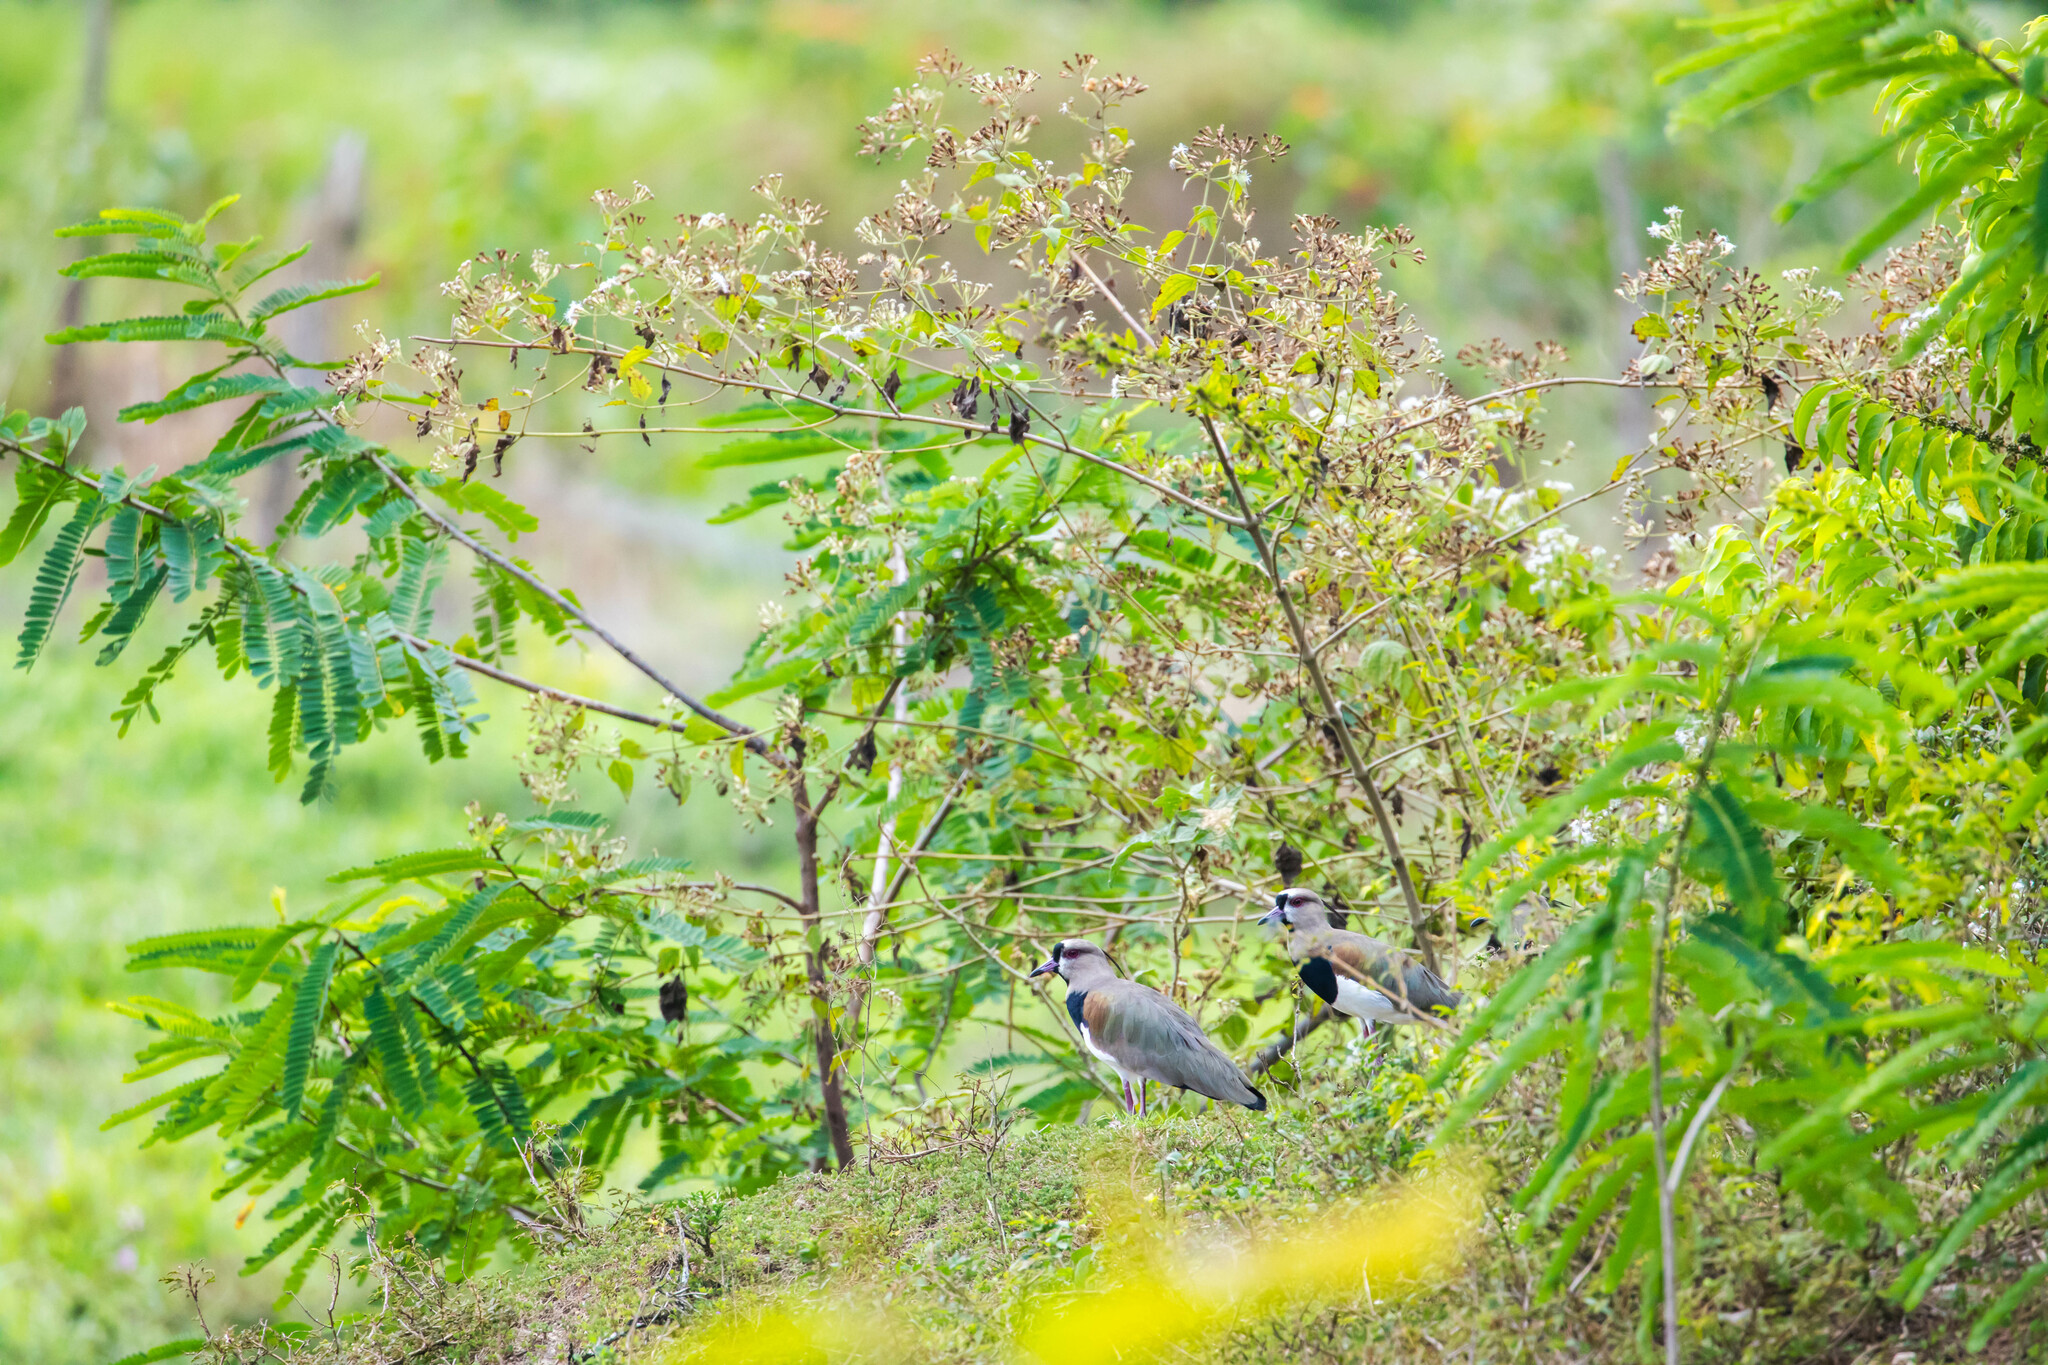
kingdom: Animalia
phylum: Chordata
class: Aves
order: Charadriiformes
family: Charadriidae
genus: Vanellus
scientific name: Vanellus chilensis
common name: Southern lapwing
